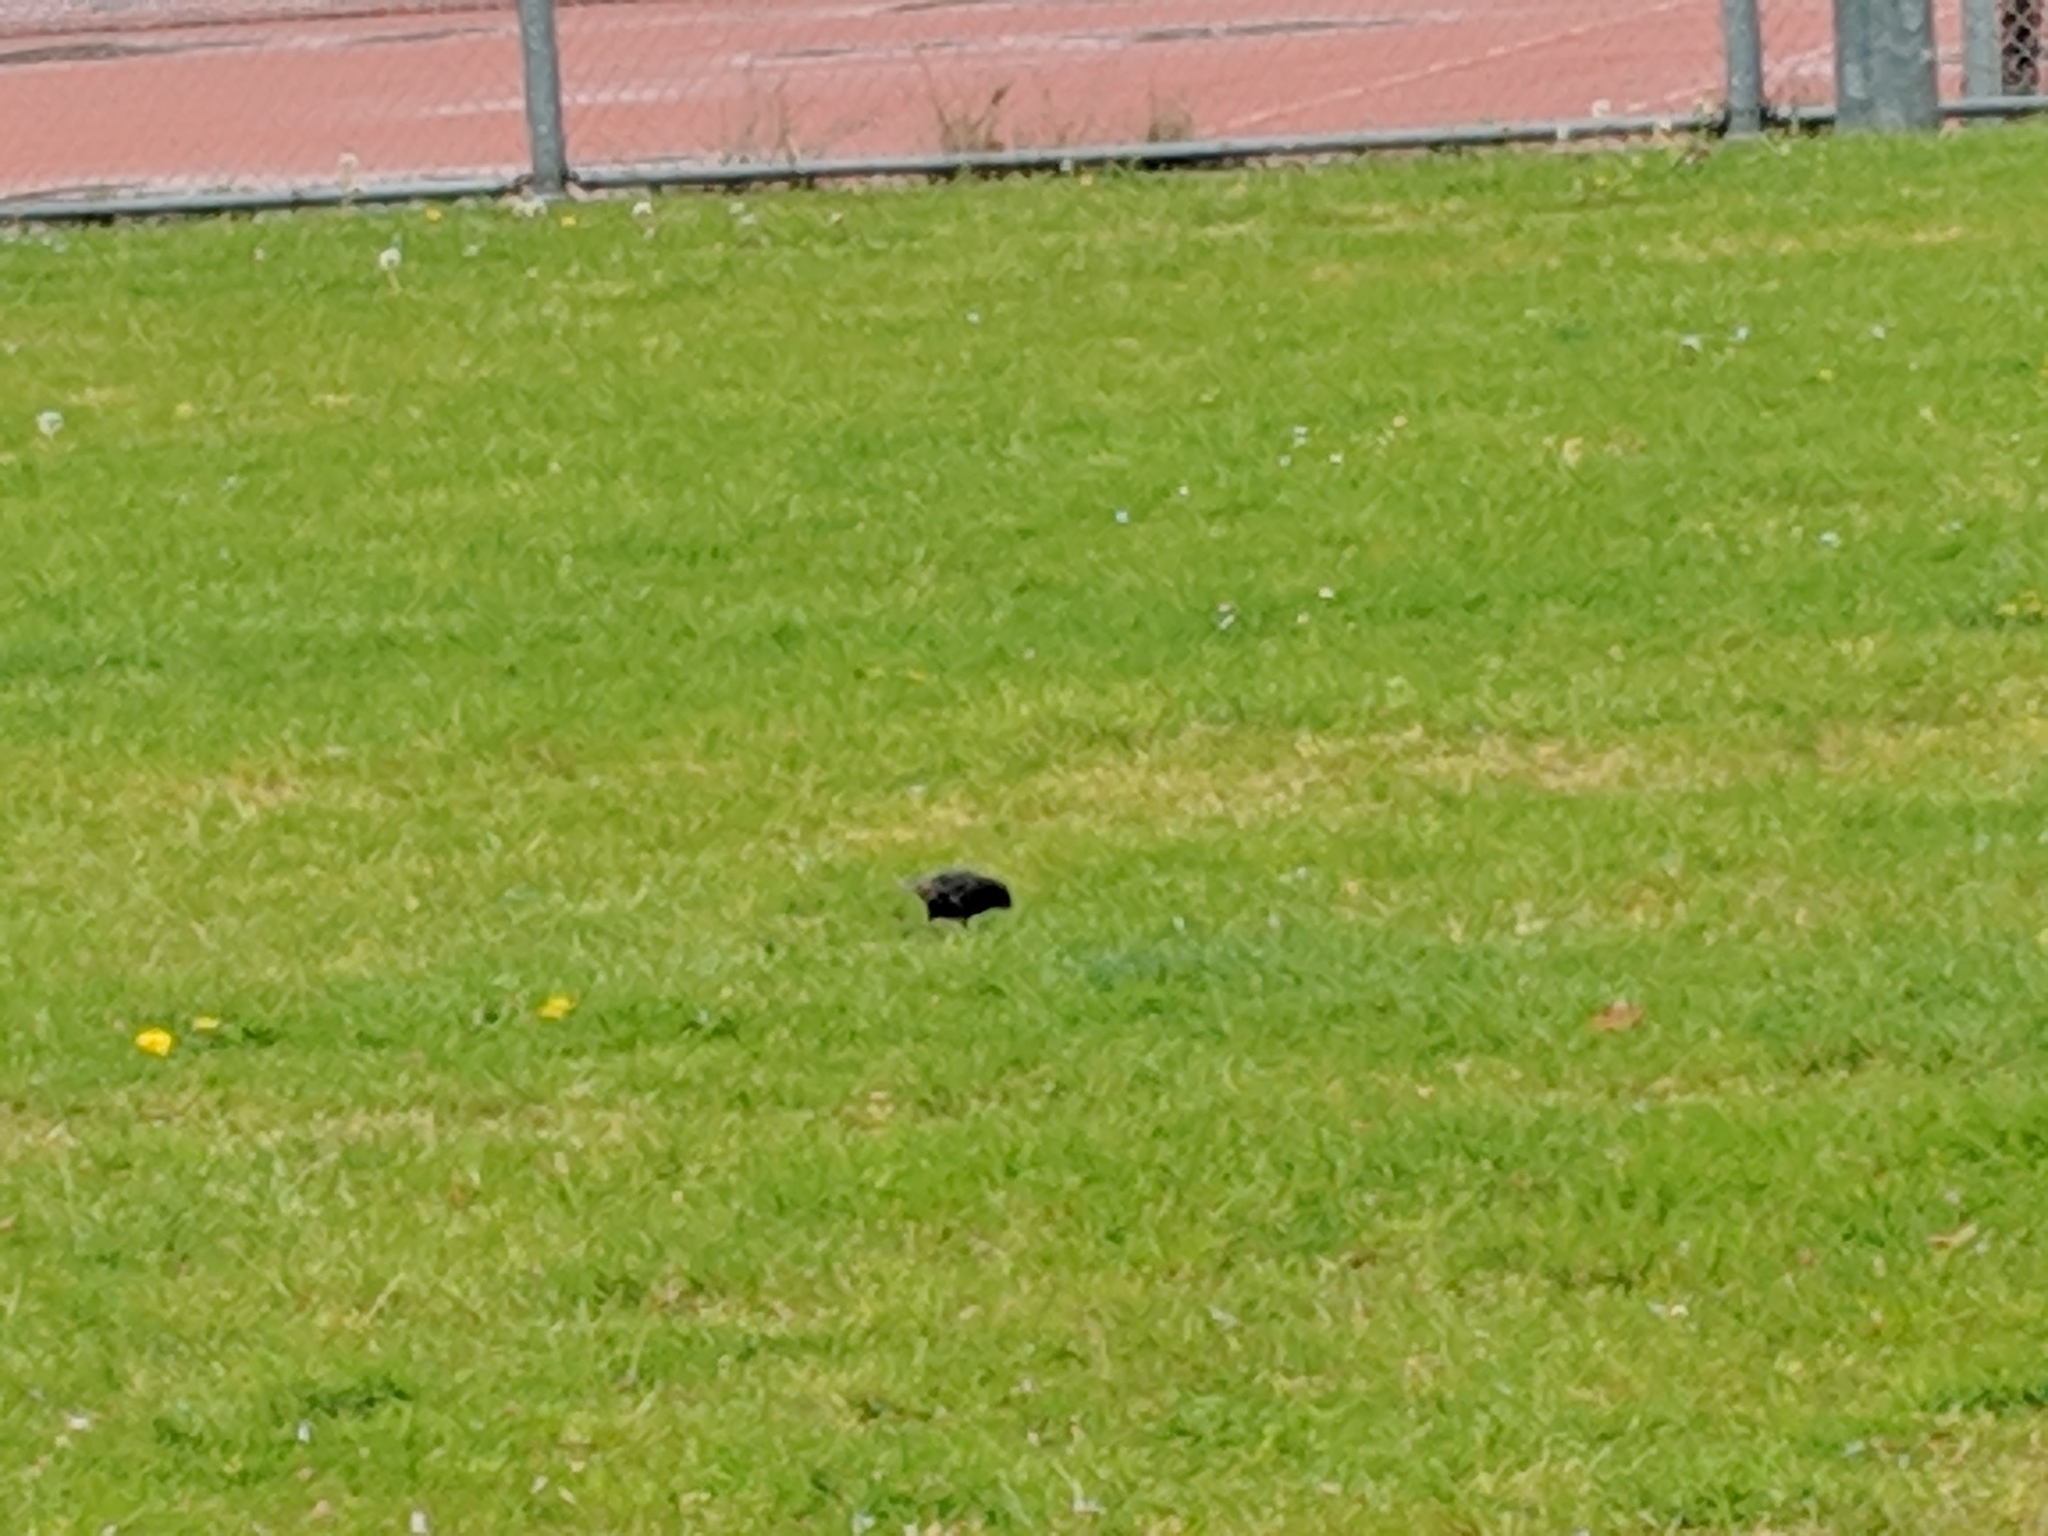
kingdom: Animalia
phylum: Chordata
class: Aves
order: Passeriformes
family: Sturnidae
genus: Sturnus
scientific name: Sturnus vulgaris
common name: Common starling
